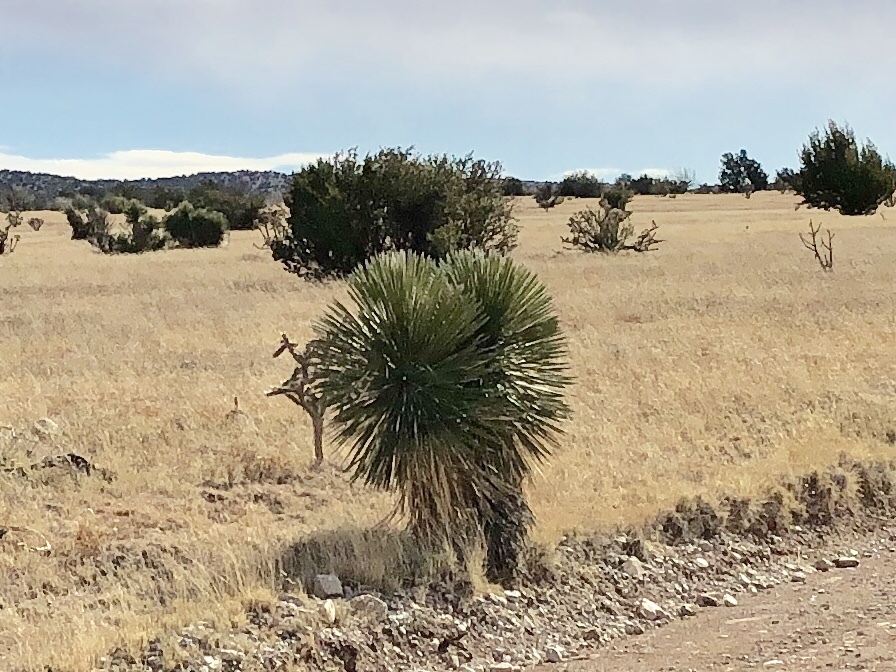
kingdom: Plantae
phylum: Tracheophyta
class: Liliopsida
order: Asparagales
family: Asparagaceae
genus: Yucca
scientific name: Yucca elata
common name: Palmella
